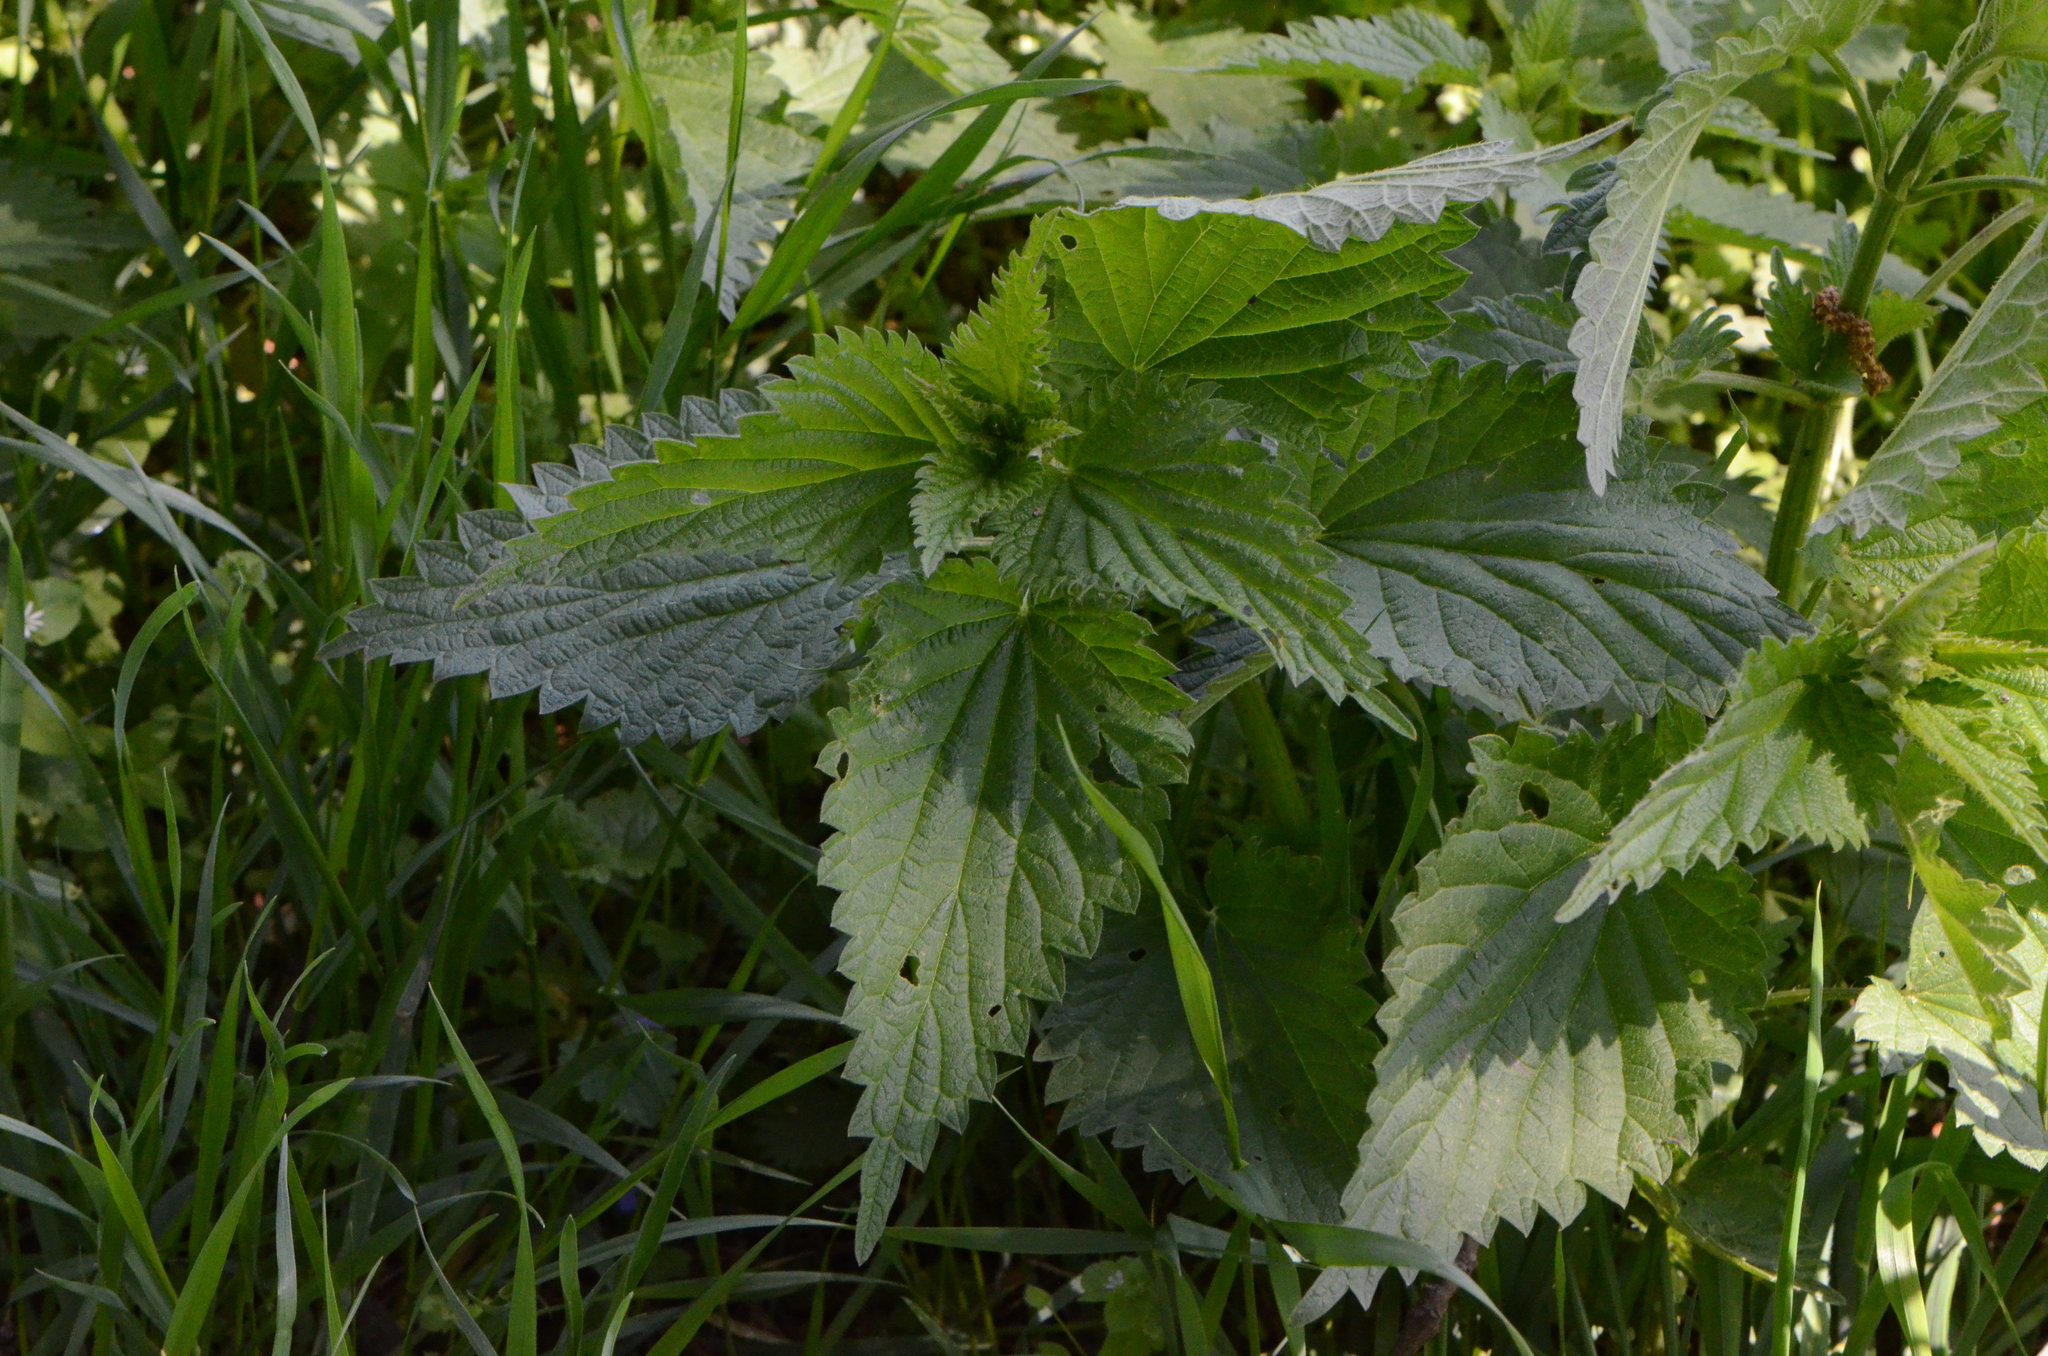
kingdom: Plantae
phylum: Tracheophyta
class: Magnoliopsida
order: Rosales
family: Urticaceae
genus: Urtica
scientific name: Urtica dioica
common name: Common nettle
